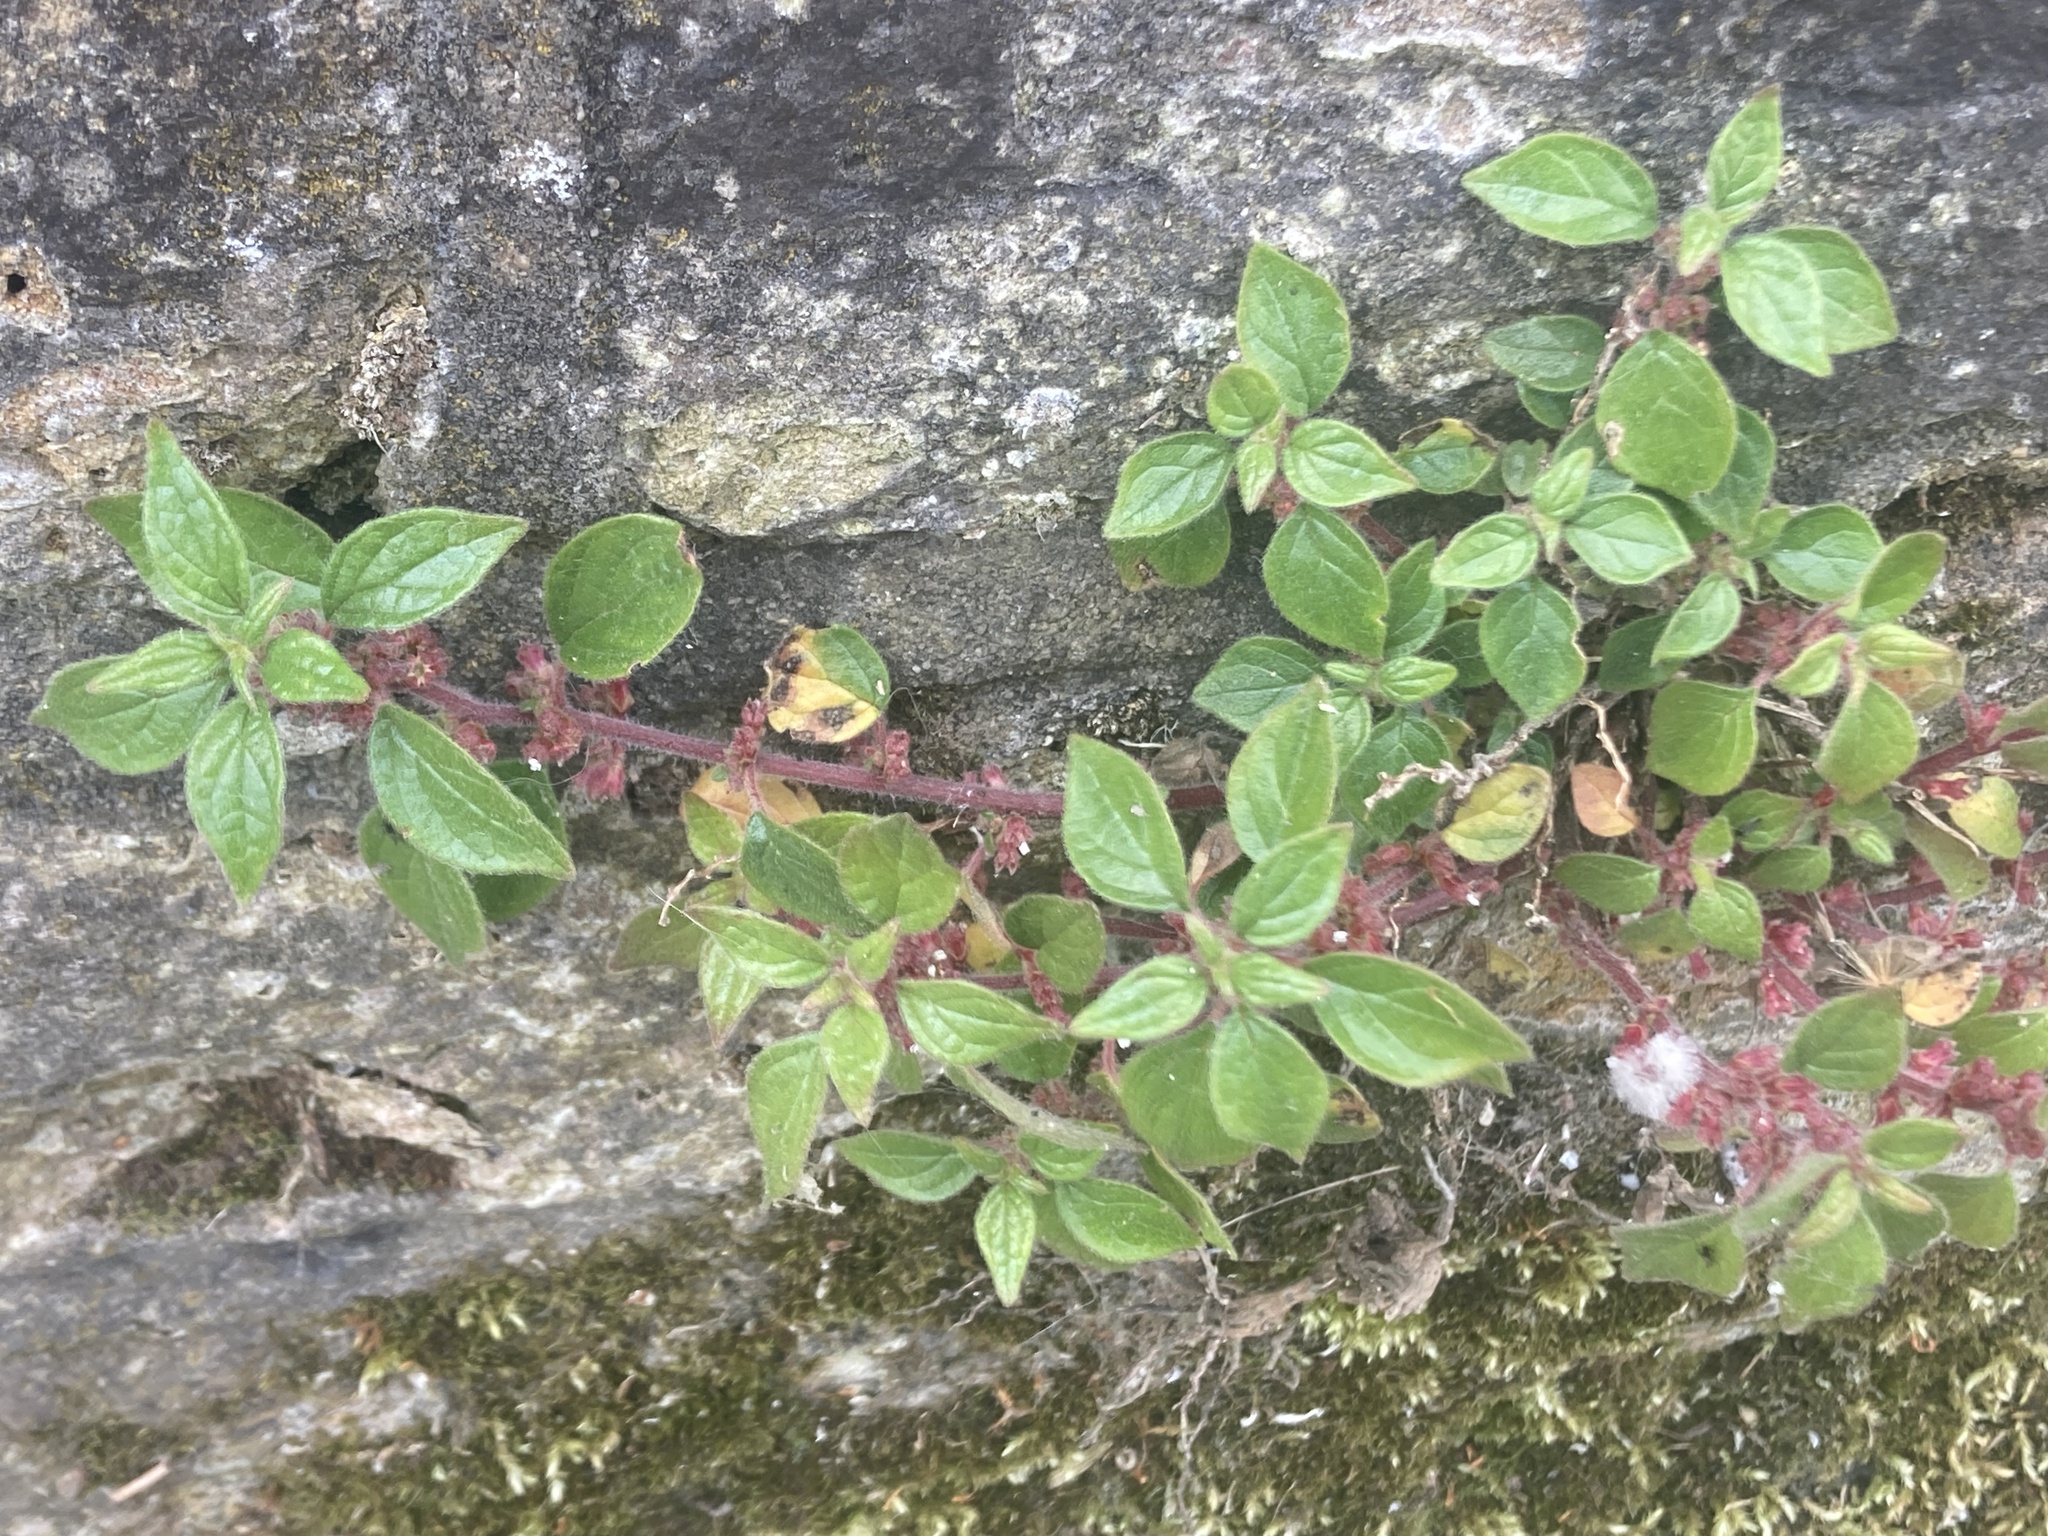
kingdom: Plantae
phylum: Tracheophyta
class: Magnoliopsida
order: Rosales
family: Urticaceae
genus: Parietaria
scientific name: Parietaria judaica
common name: Pellitory-of-the-wall
